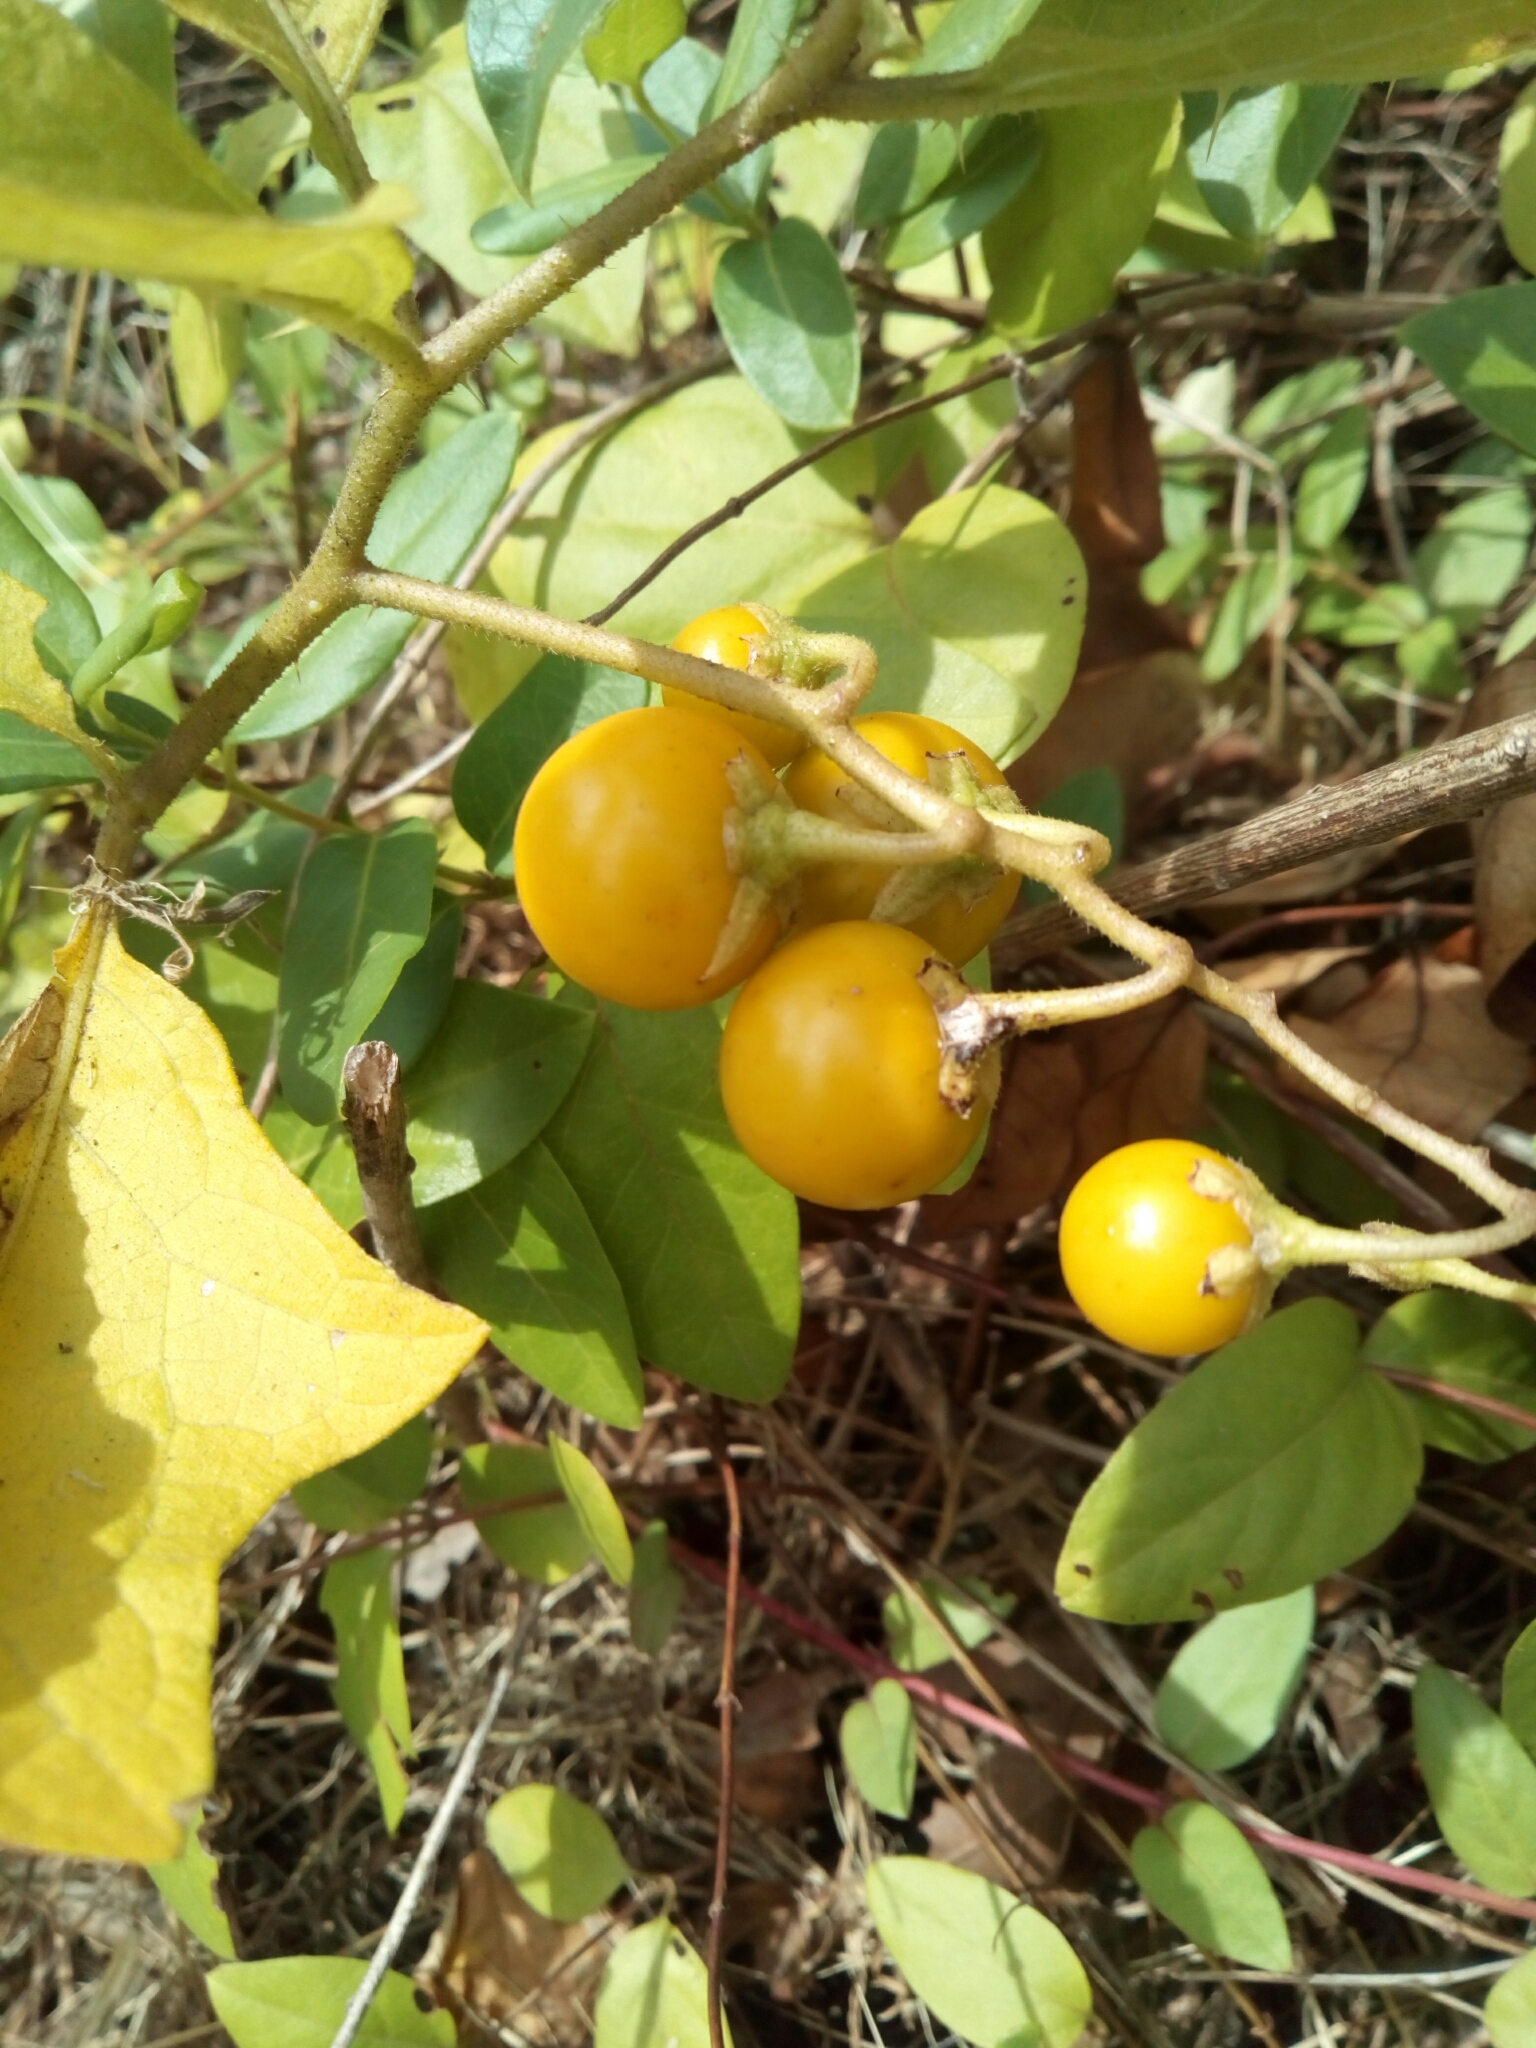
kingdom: Plantae
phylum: Tracheophyta
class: Magnoliopsida
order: Solanales
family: Solanaceae
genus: Solanum
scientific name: Solanum carolinense
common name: Horse-nettle
